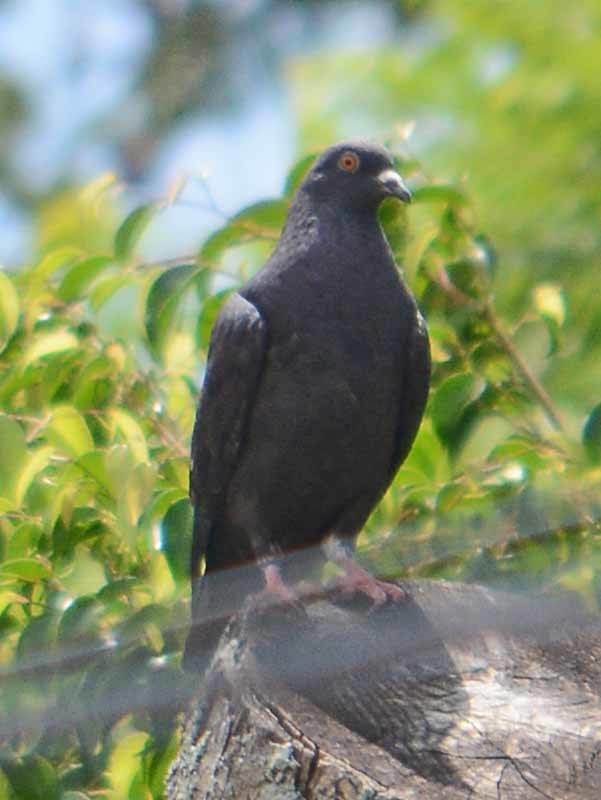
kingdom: Animalia
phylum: Chordata
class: Aves
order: Columbiformes
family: Columbidae
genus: Columba
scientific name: Columba livia
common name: Rock pigeon
